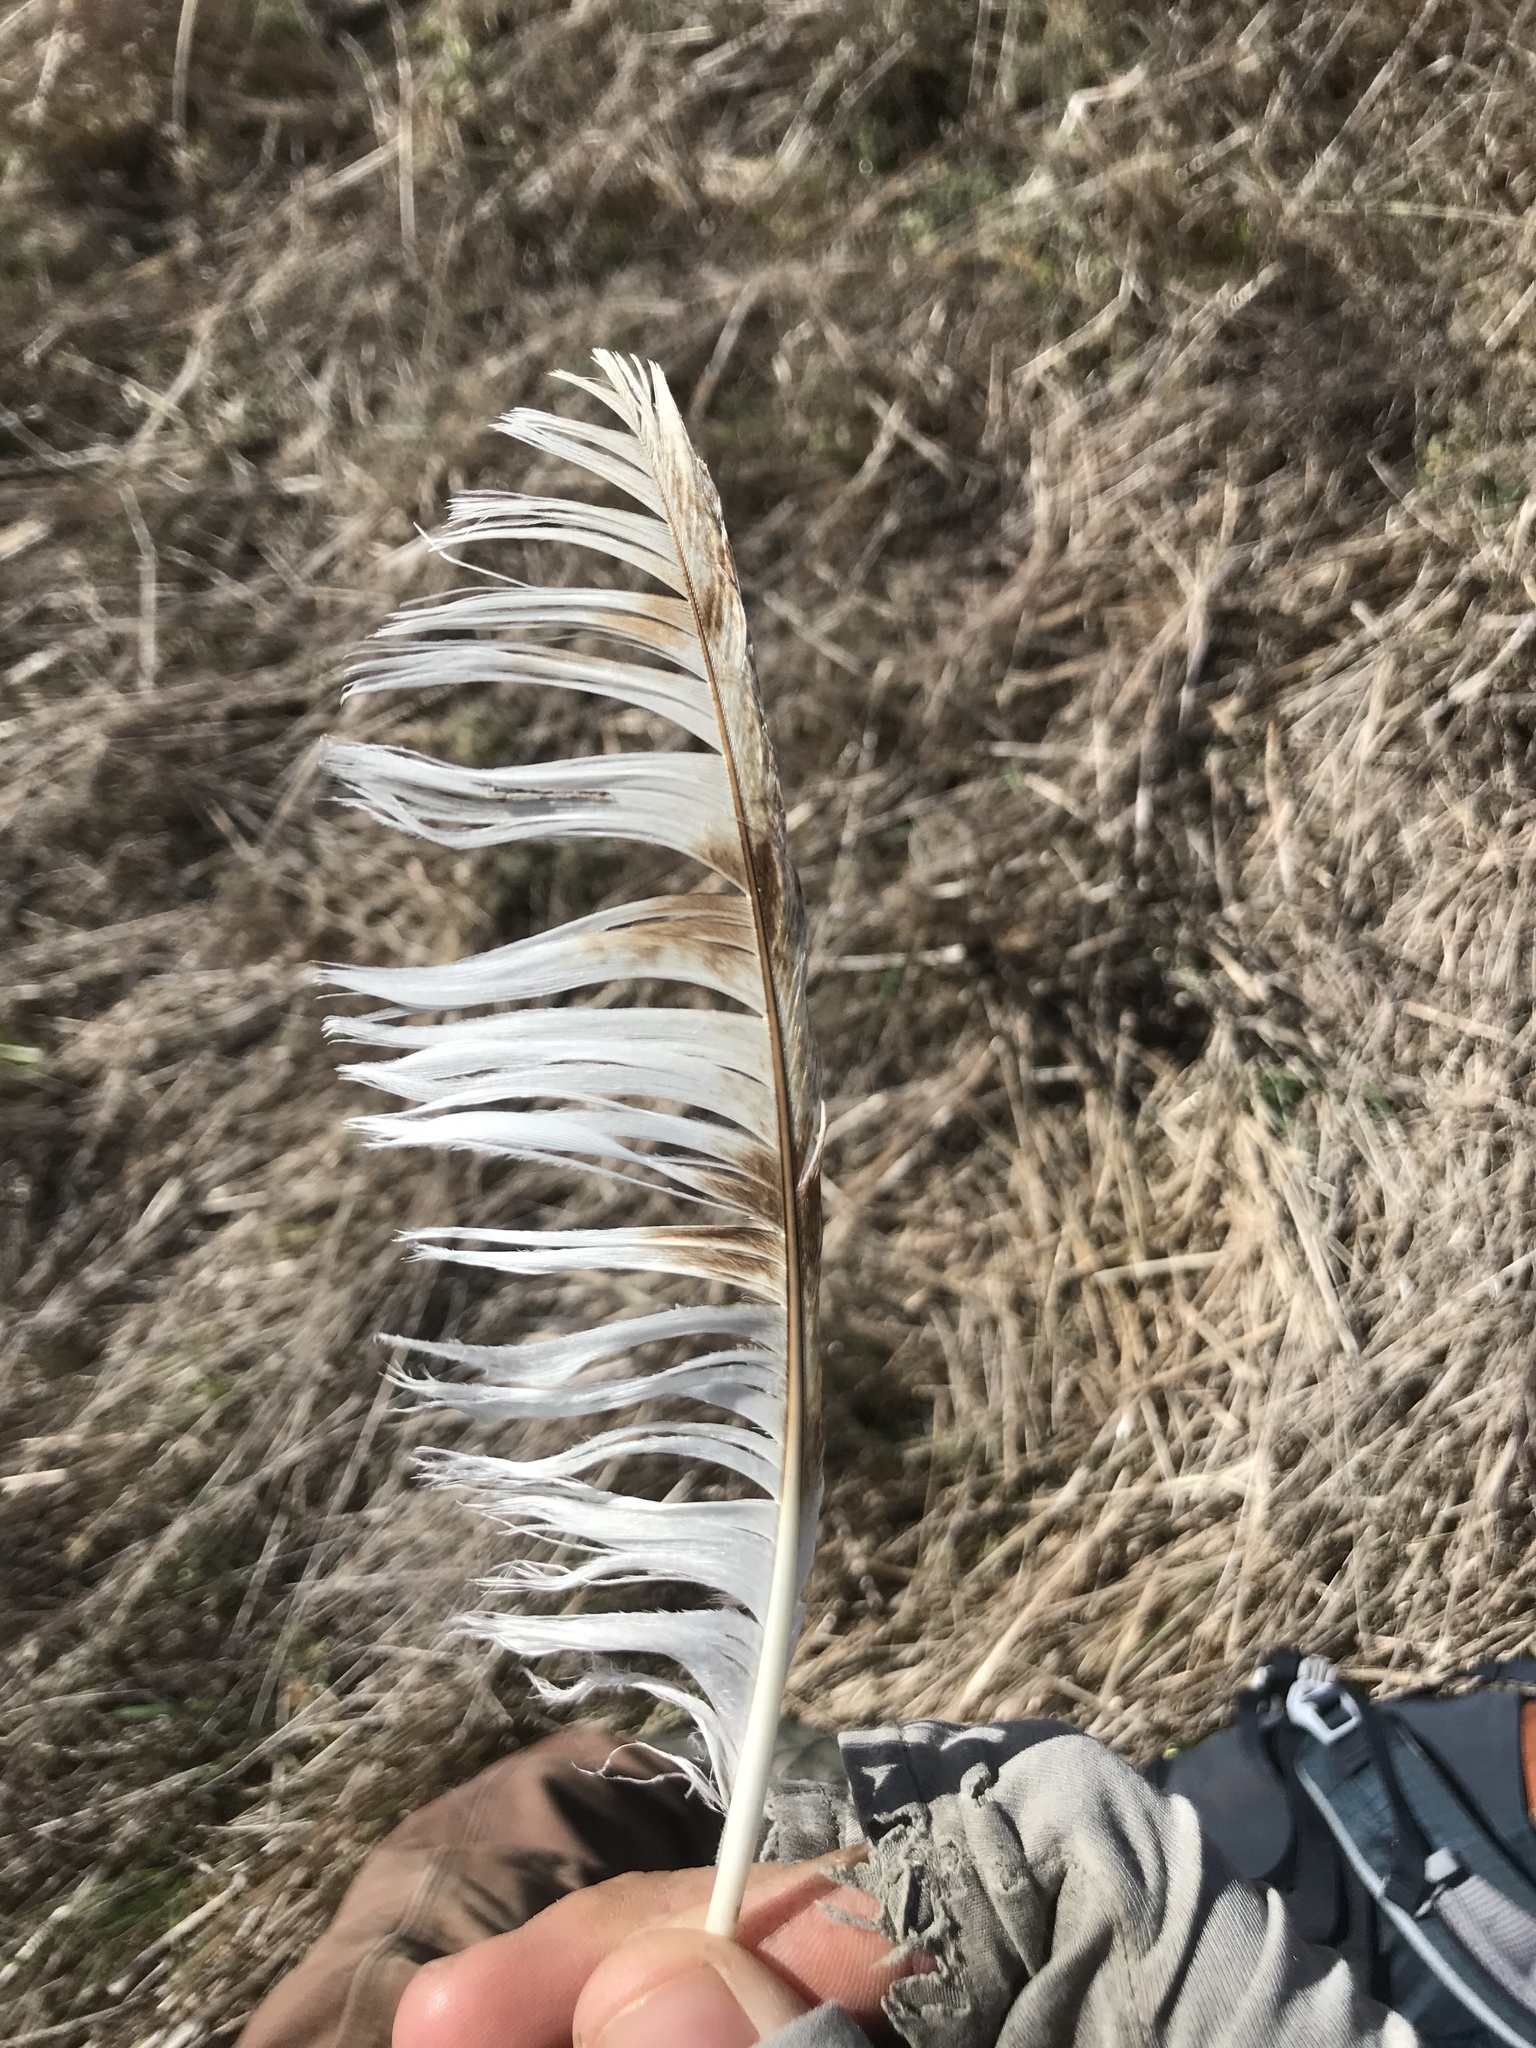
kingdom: Animalia
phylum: Chordata
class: Aves
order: Strigiformes
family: Tytonidae
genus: Tyto
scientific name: Tyto alba
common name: Barn owl
